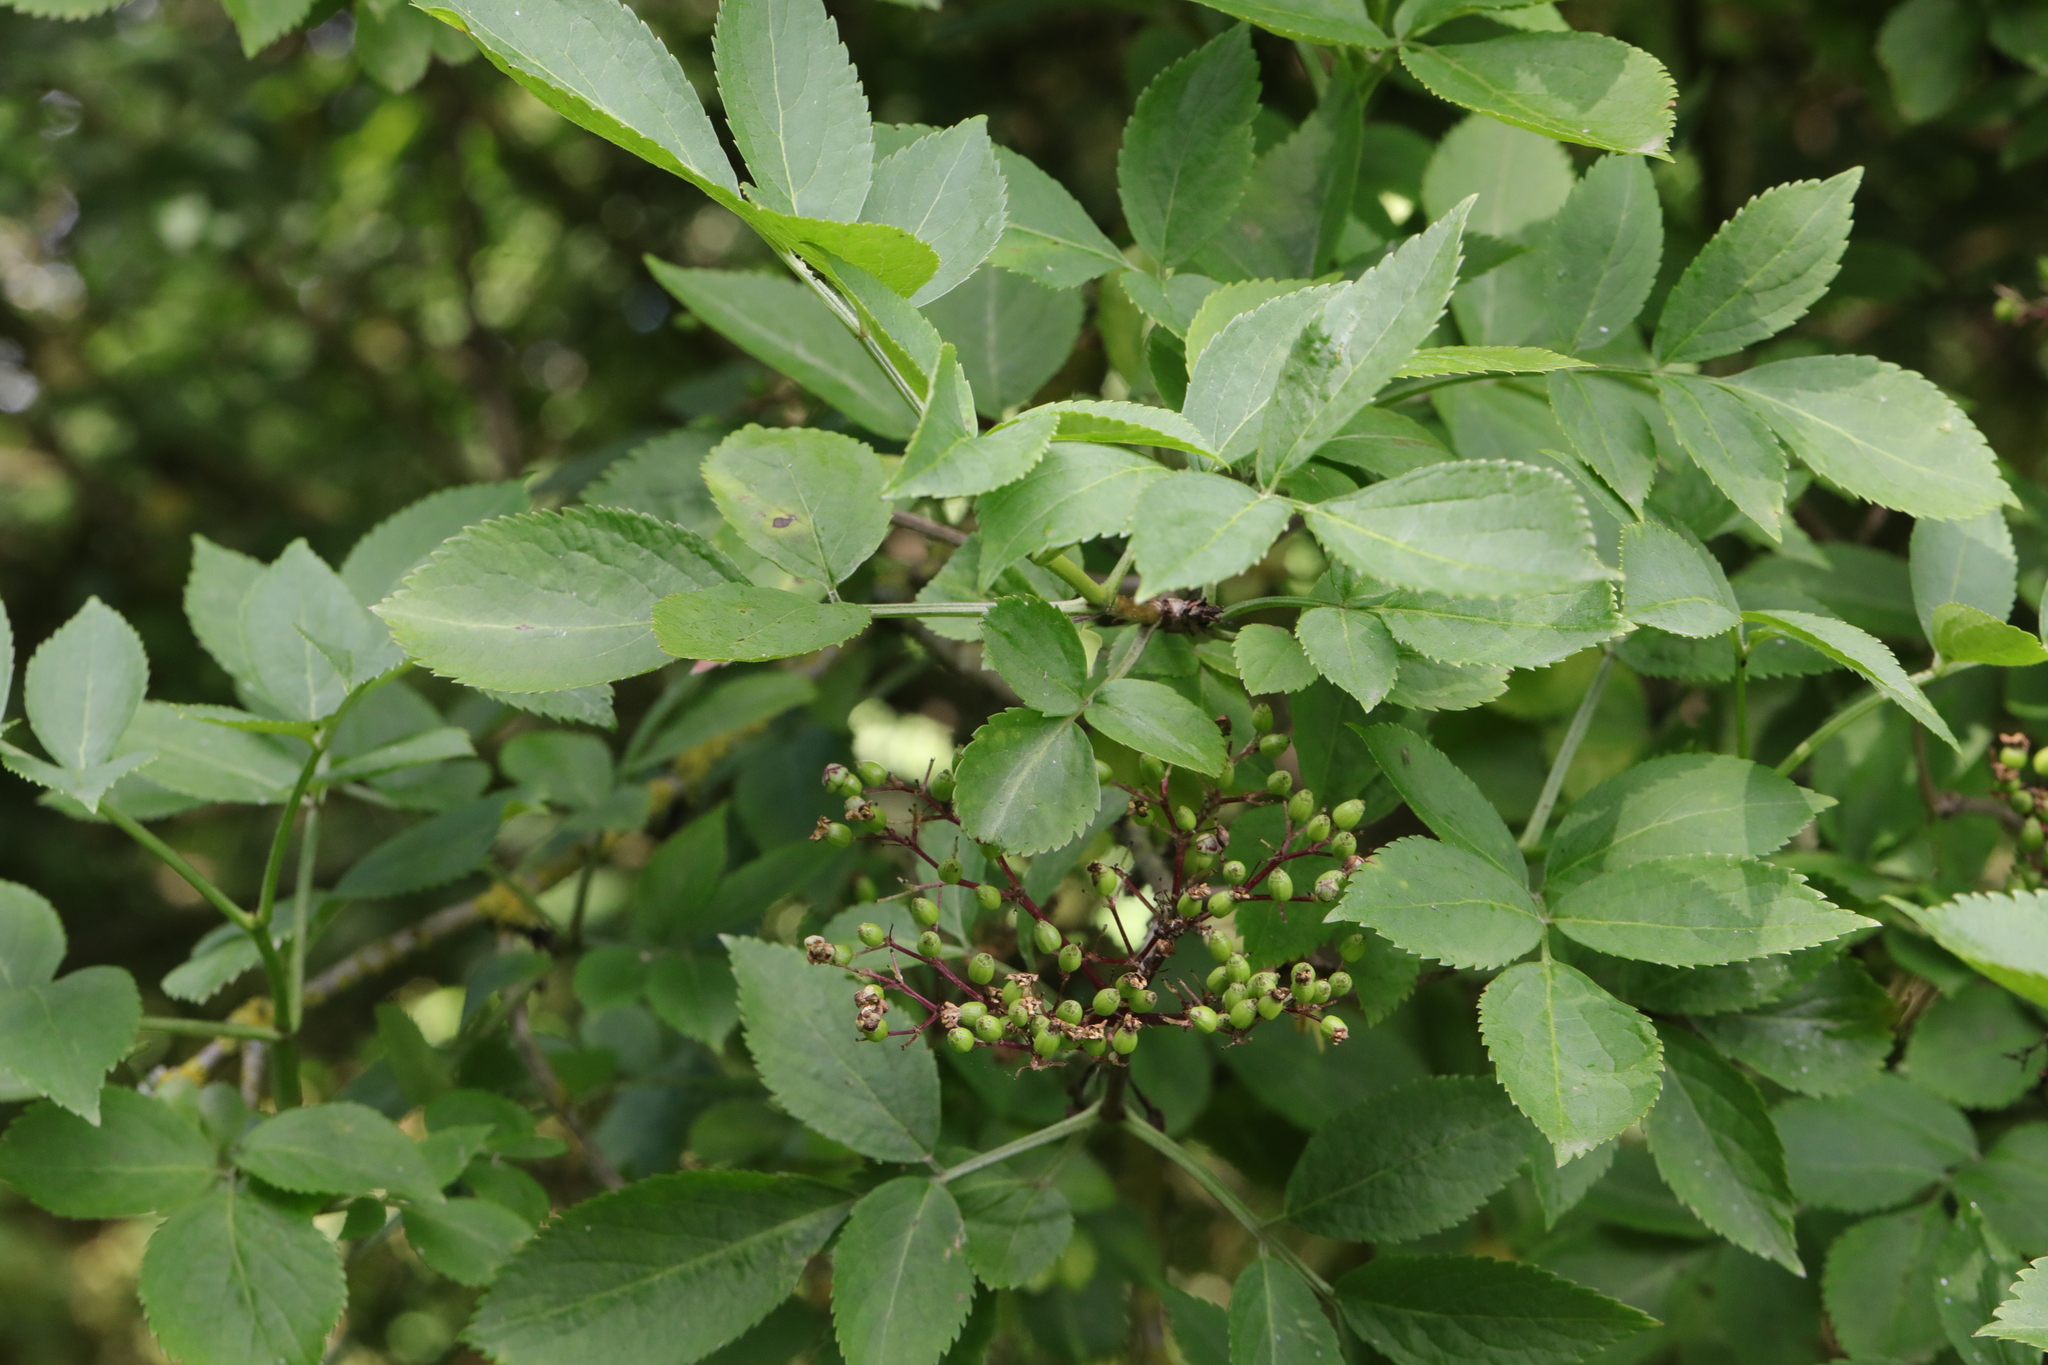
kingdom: Plantae
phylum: Tracheophyta
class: Magnoliopsida
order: Dipsacales
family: Viburnaceae
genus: Sambucus
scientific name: Sambucus nigra
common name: Elder
